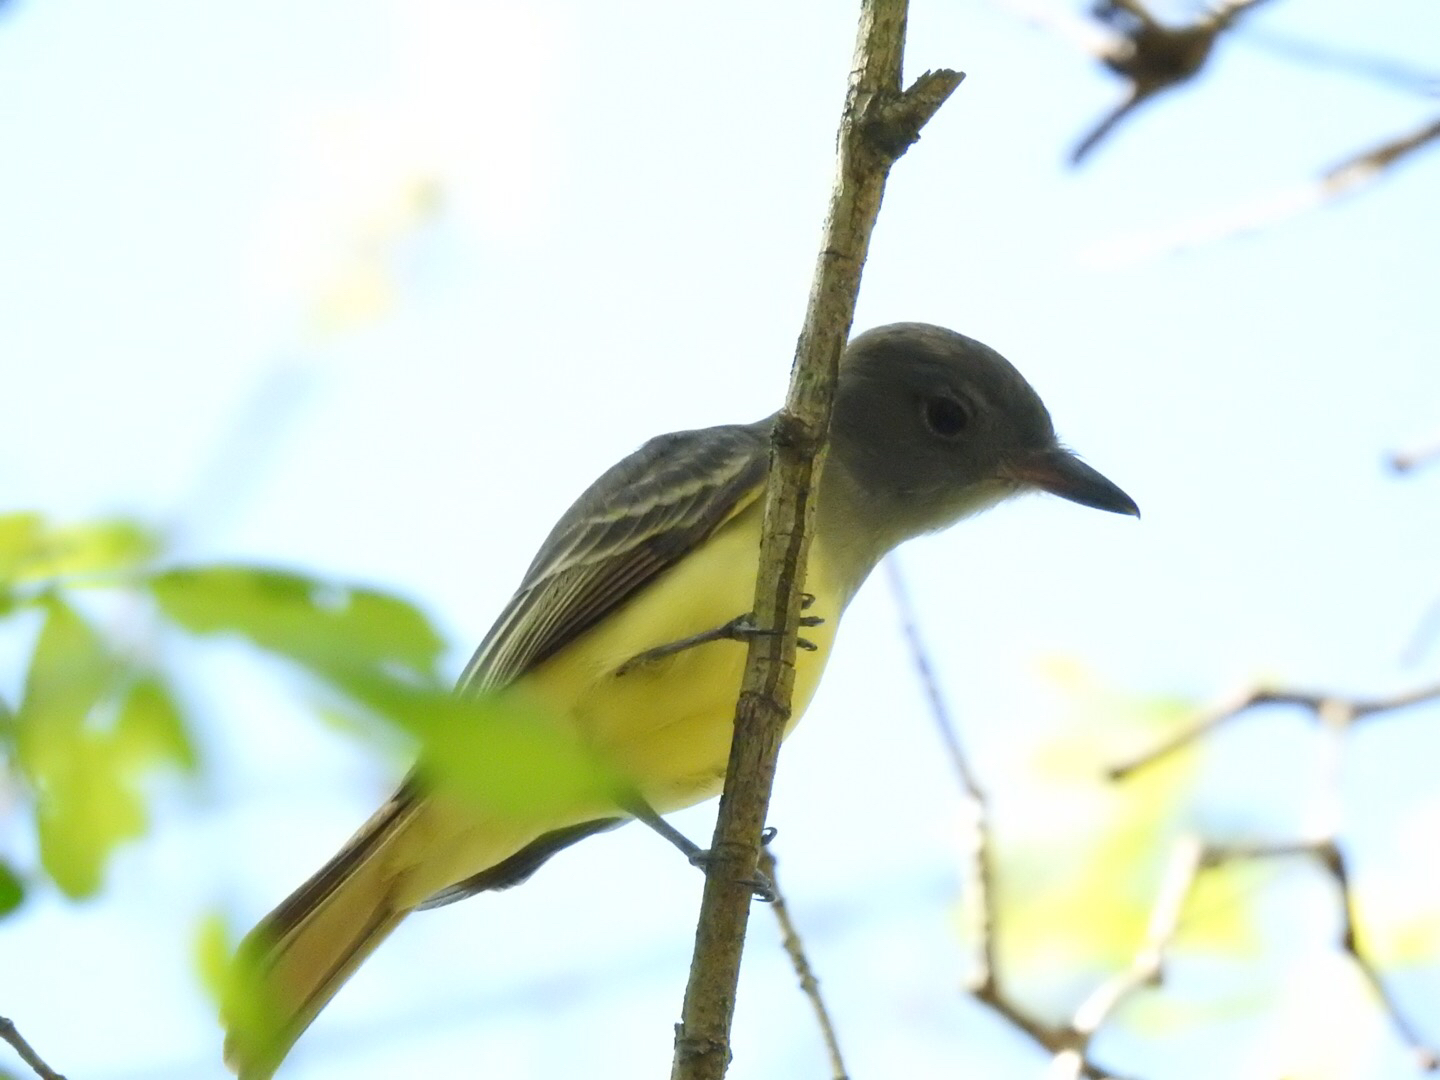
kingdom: Animalia
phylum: Chordata
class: Aves
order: Passeriformes
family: Tyrannidae
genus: Myiarchus
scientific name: Myiarchus crinitus
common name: Great crested flycatcher
